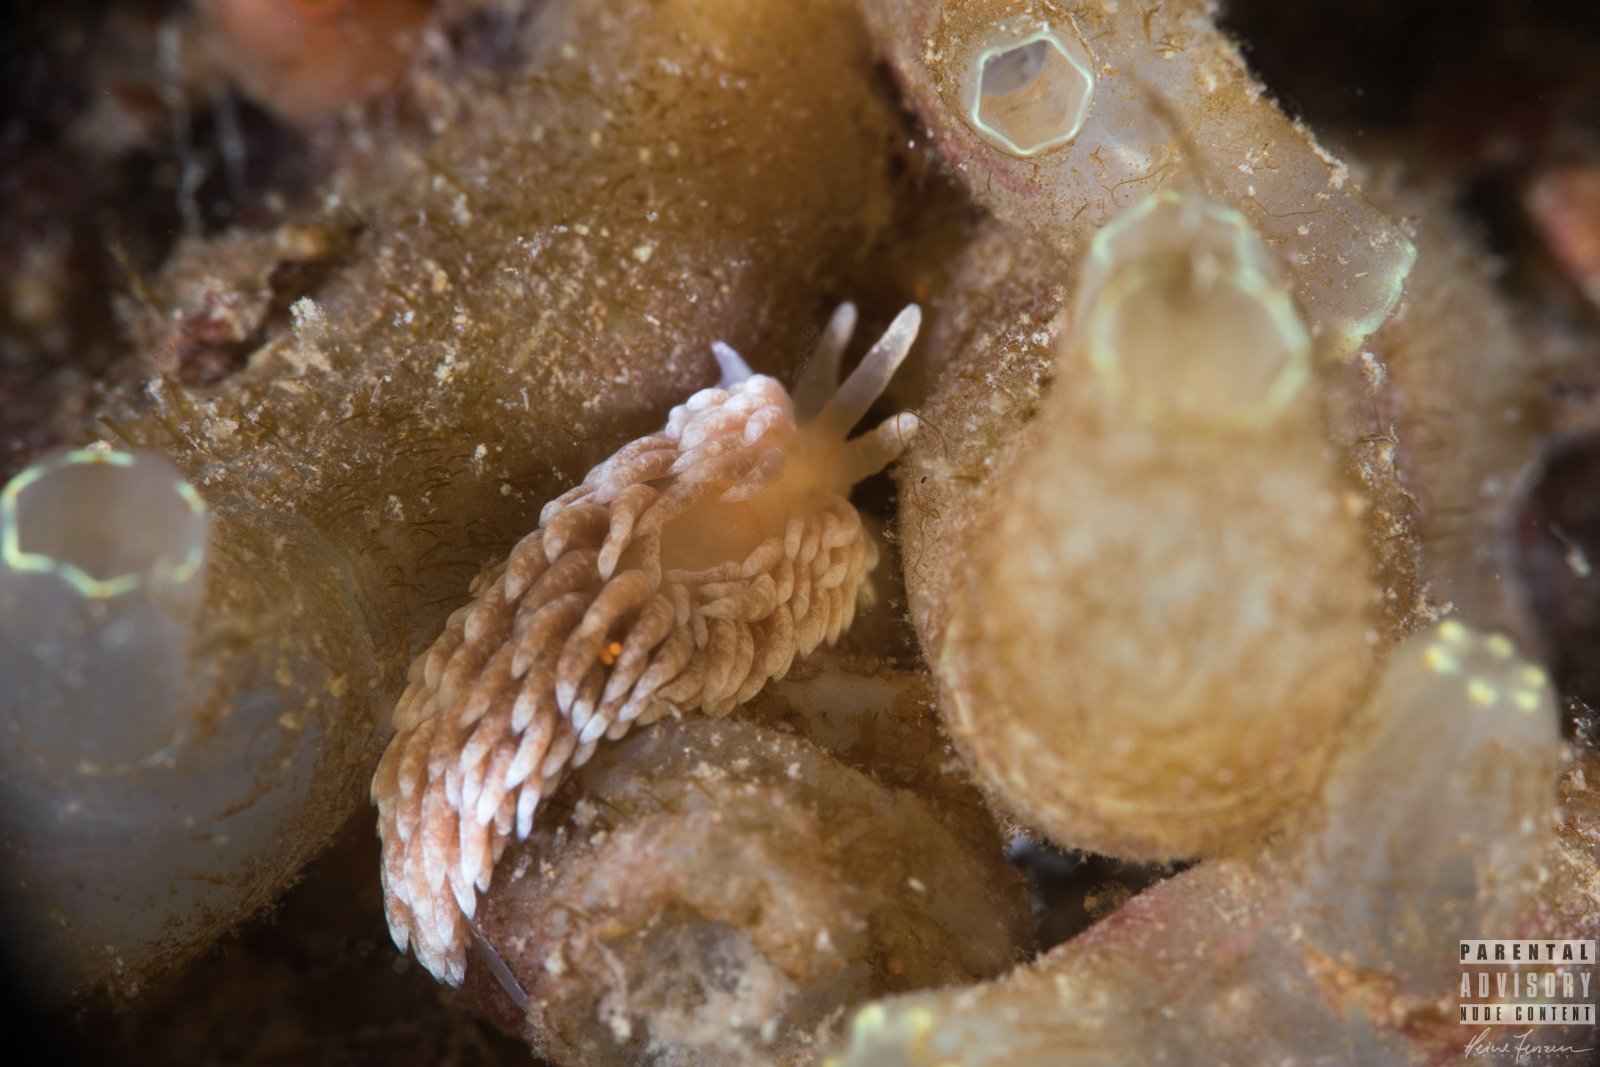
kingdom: Animalia
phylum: Mollusca
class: Gastropoda
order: Nudibranchia
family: Aeolidiidae
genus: Aeolidiella
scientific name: Aeolidiella glauca
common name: Orange-brown aeolid
